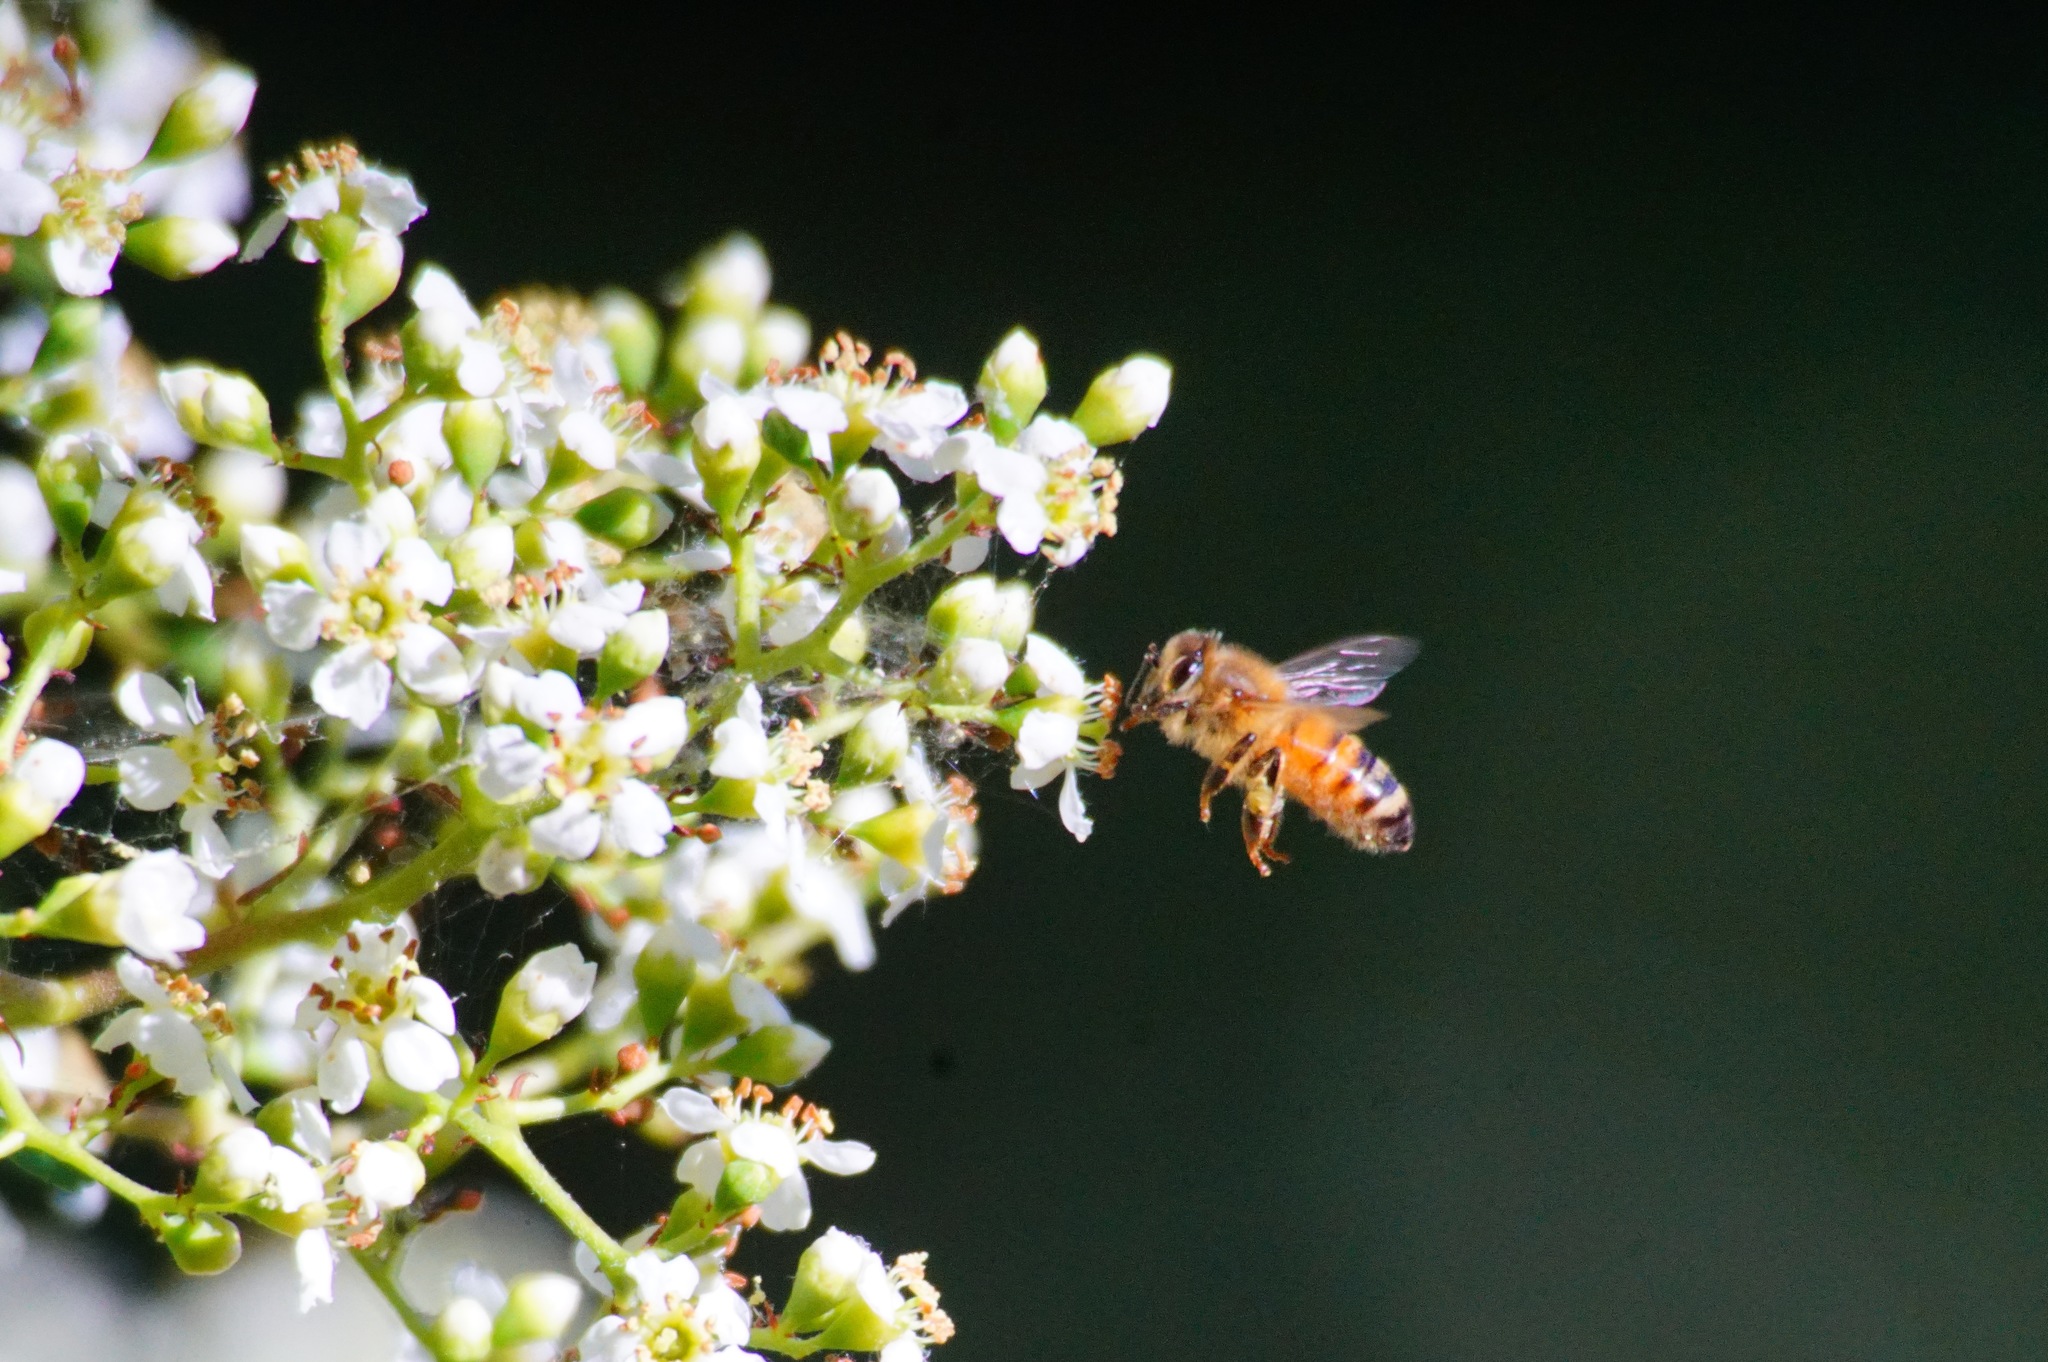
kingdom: Animalia
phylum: Arthropoda
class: Insecta
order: Hymenoptera
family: Apidae
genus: Apis
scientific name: Apis mellifera
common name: Honey bee
